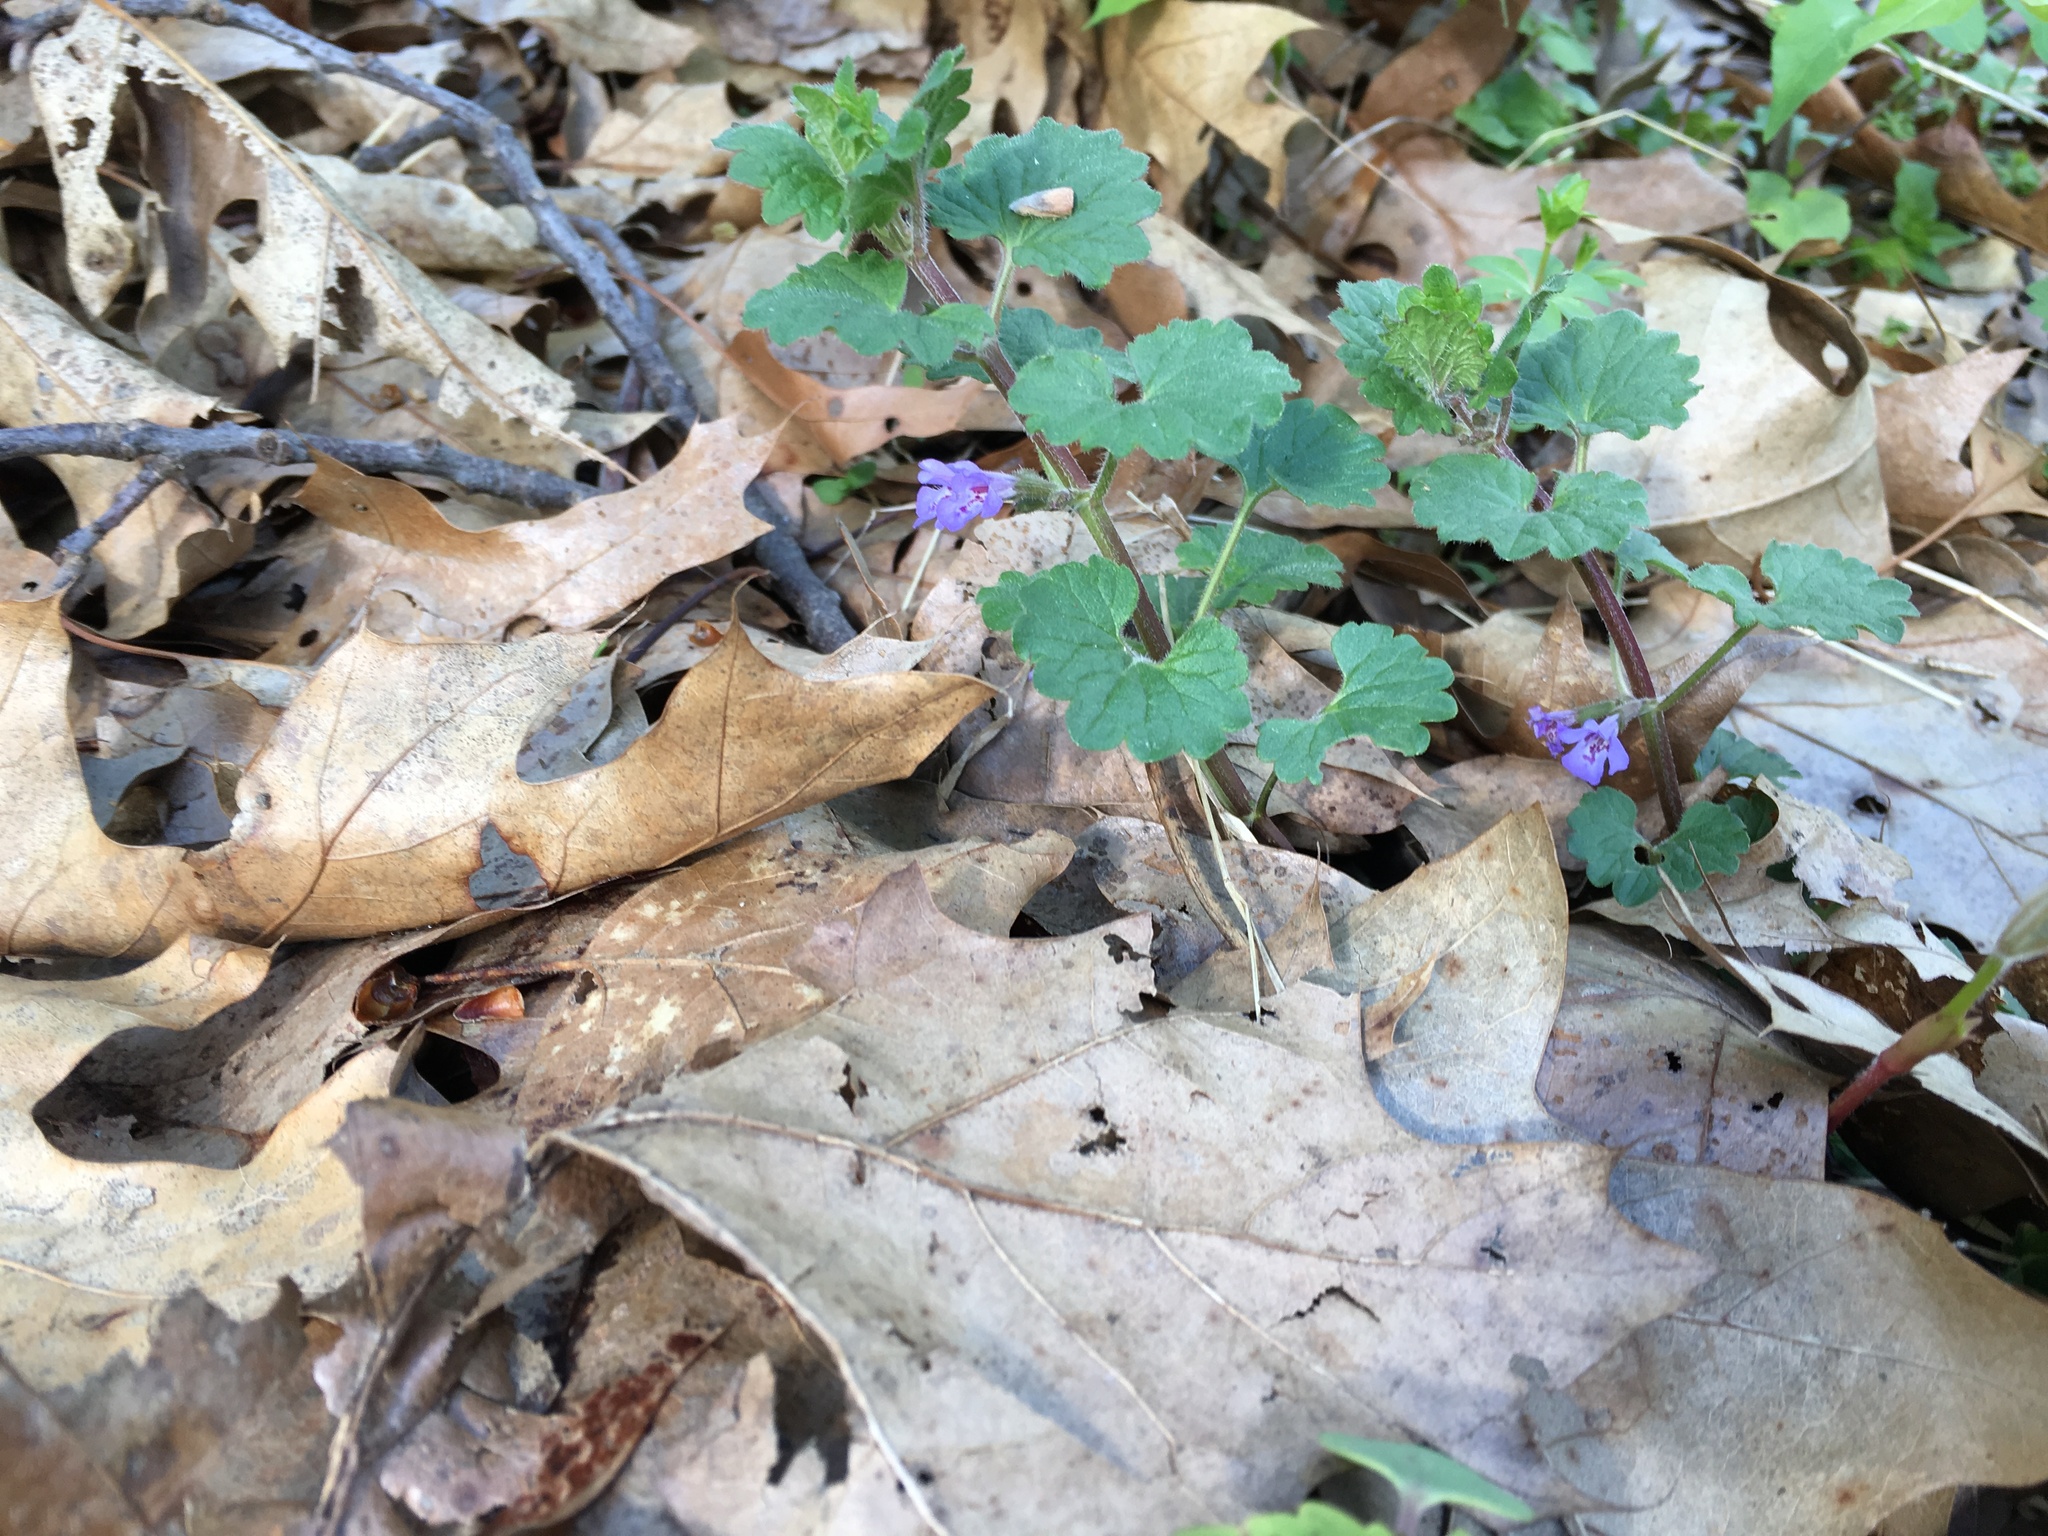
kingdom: Plantae
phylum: Tracheophyta
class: Magnoliopsida
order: Lamiales
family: Lamiaceae
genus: Glechoma
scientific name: Glechoma hederacea
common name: Ground ivy
